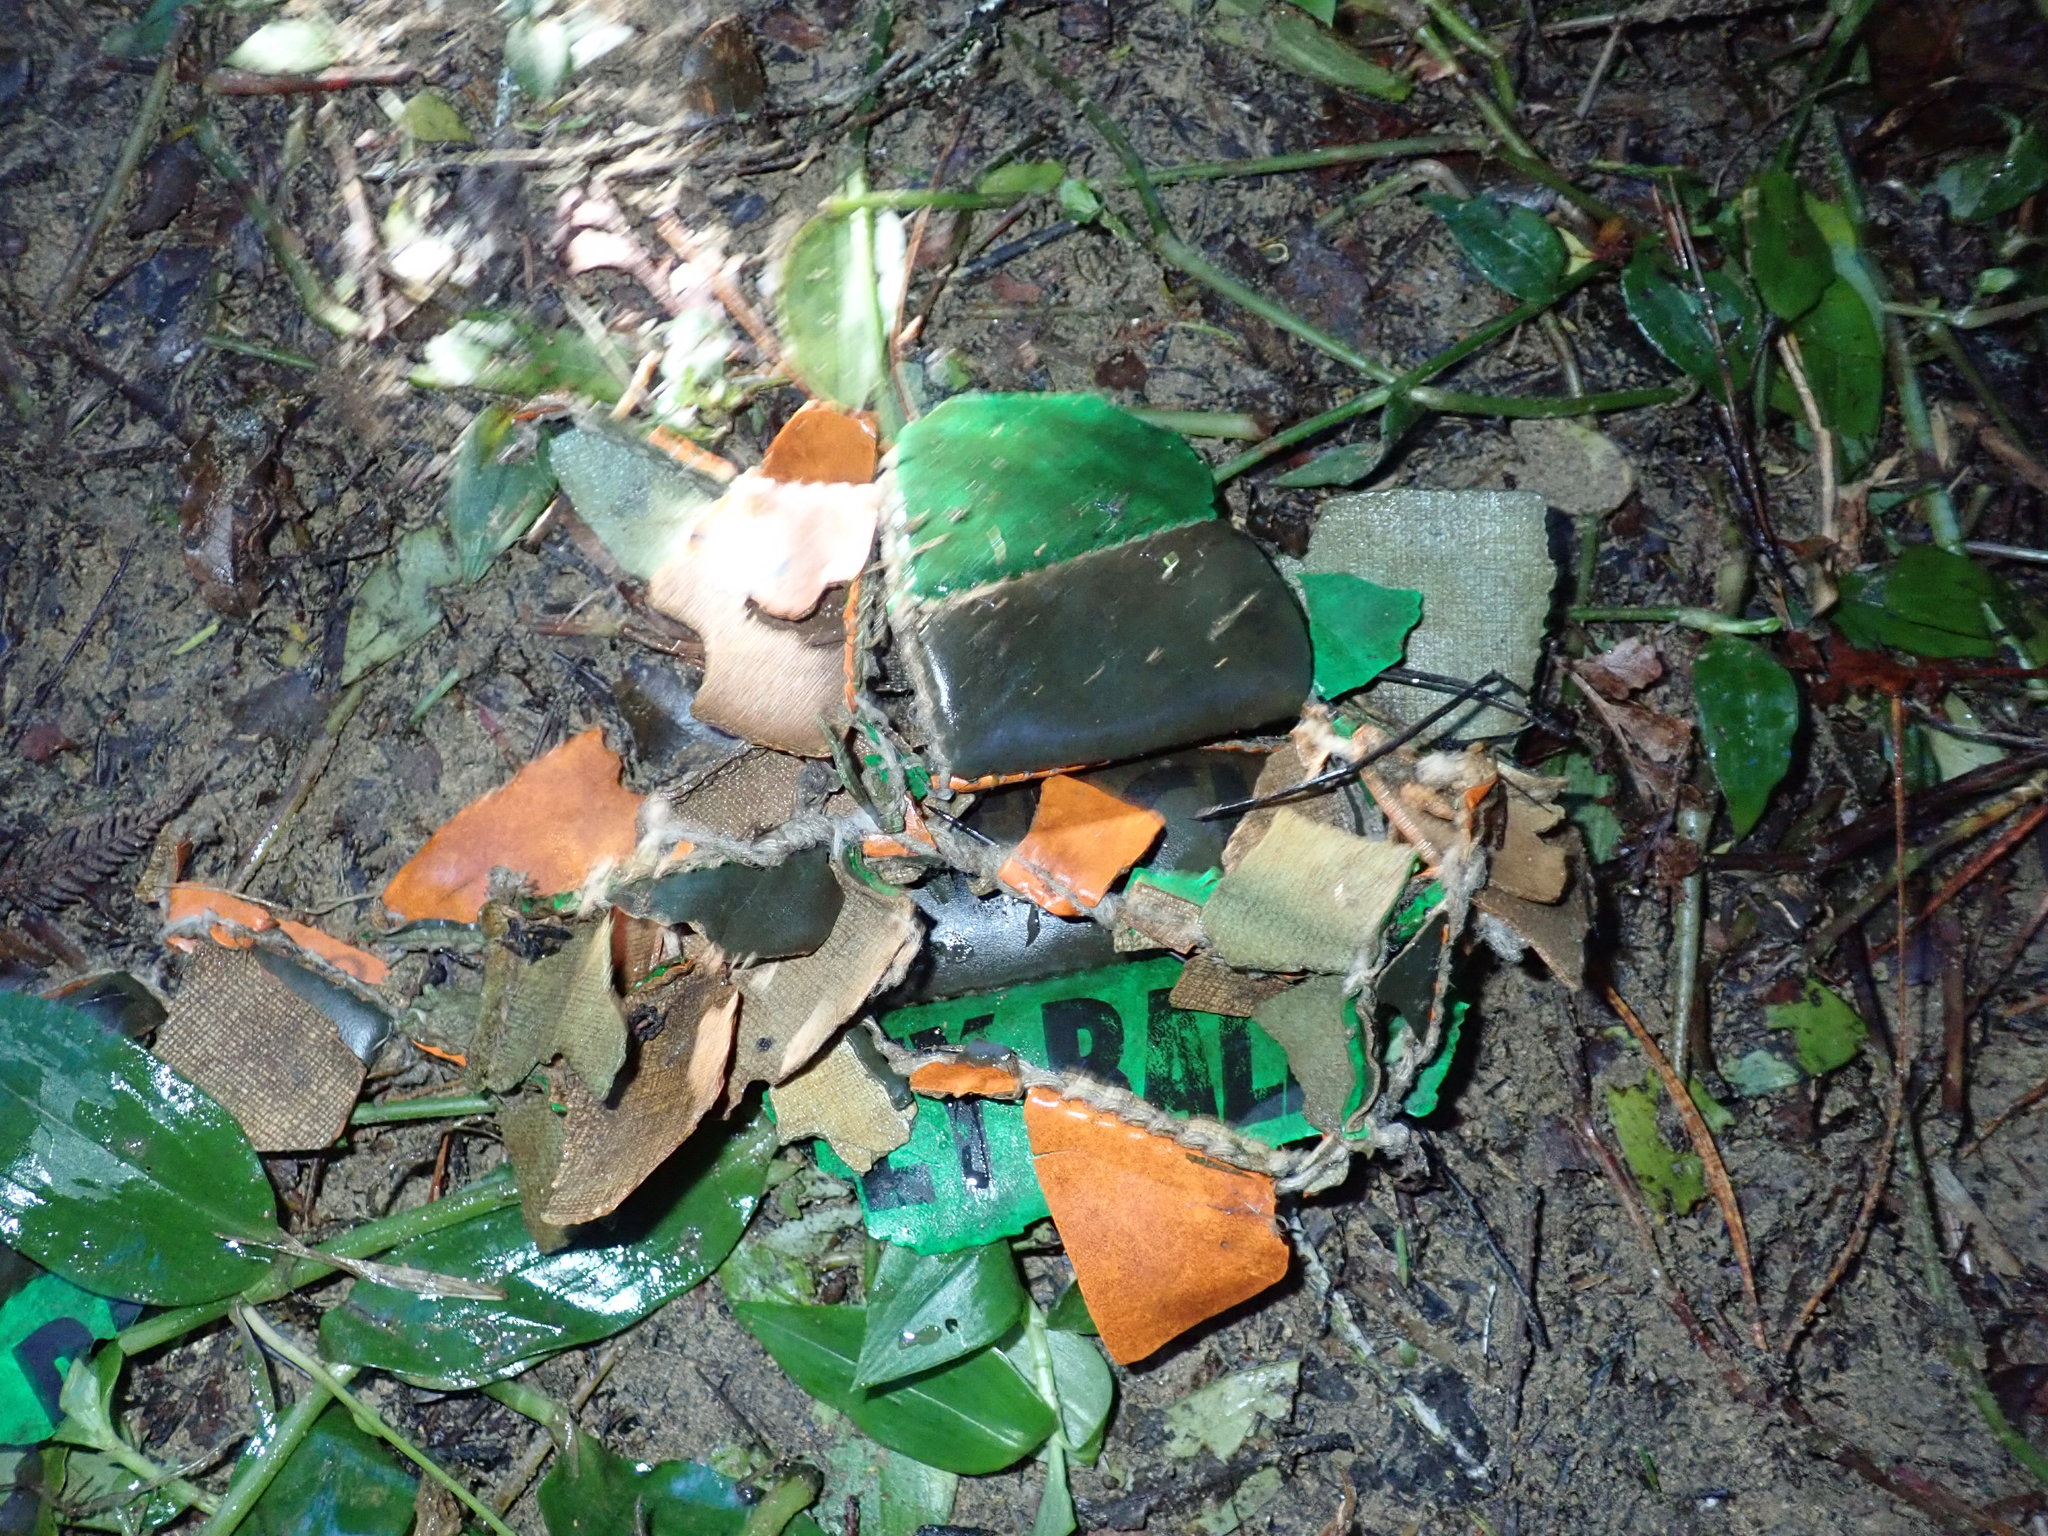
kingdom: Plantae
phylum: Tracheophyta
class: Liliopsida
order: Commelinales
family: Commelinaceae
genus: Tradescantia
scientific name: Tradescantia fluminensis
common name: Wandering-jew
